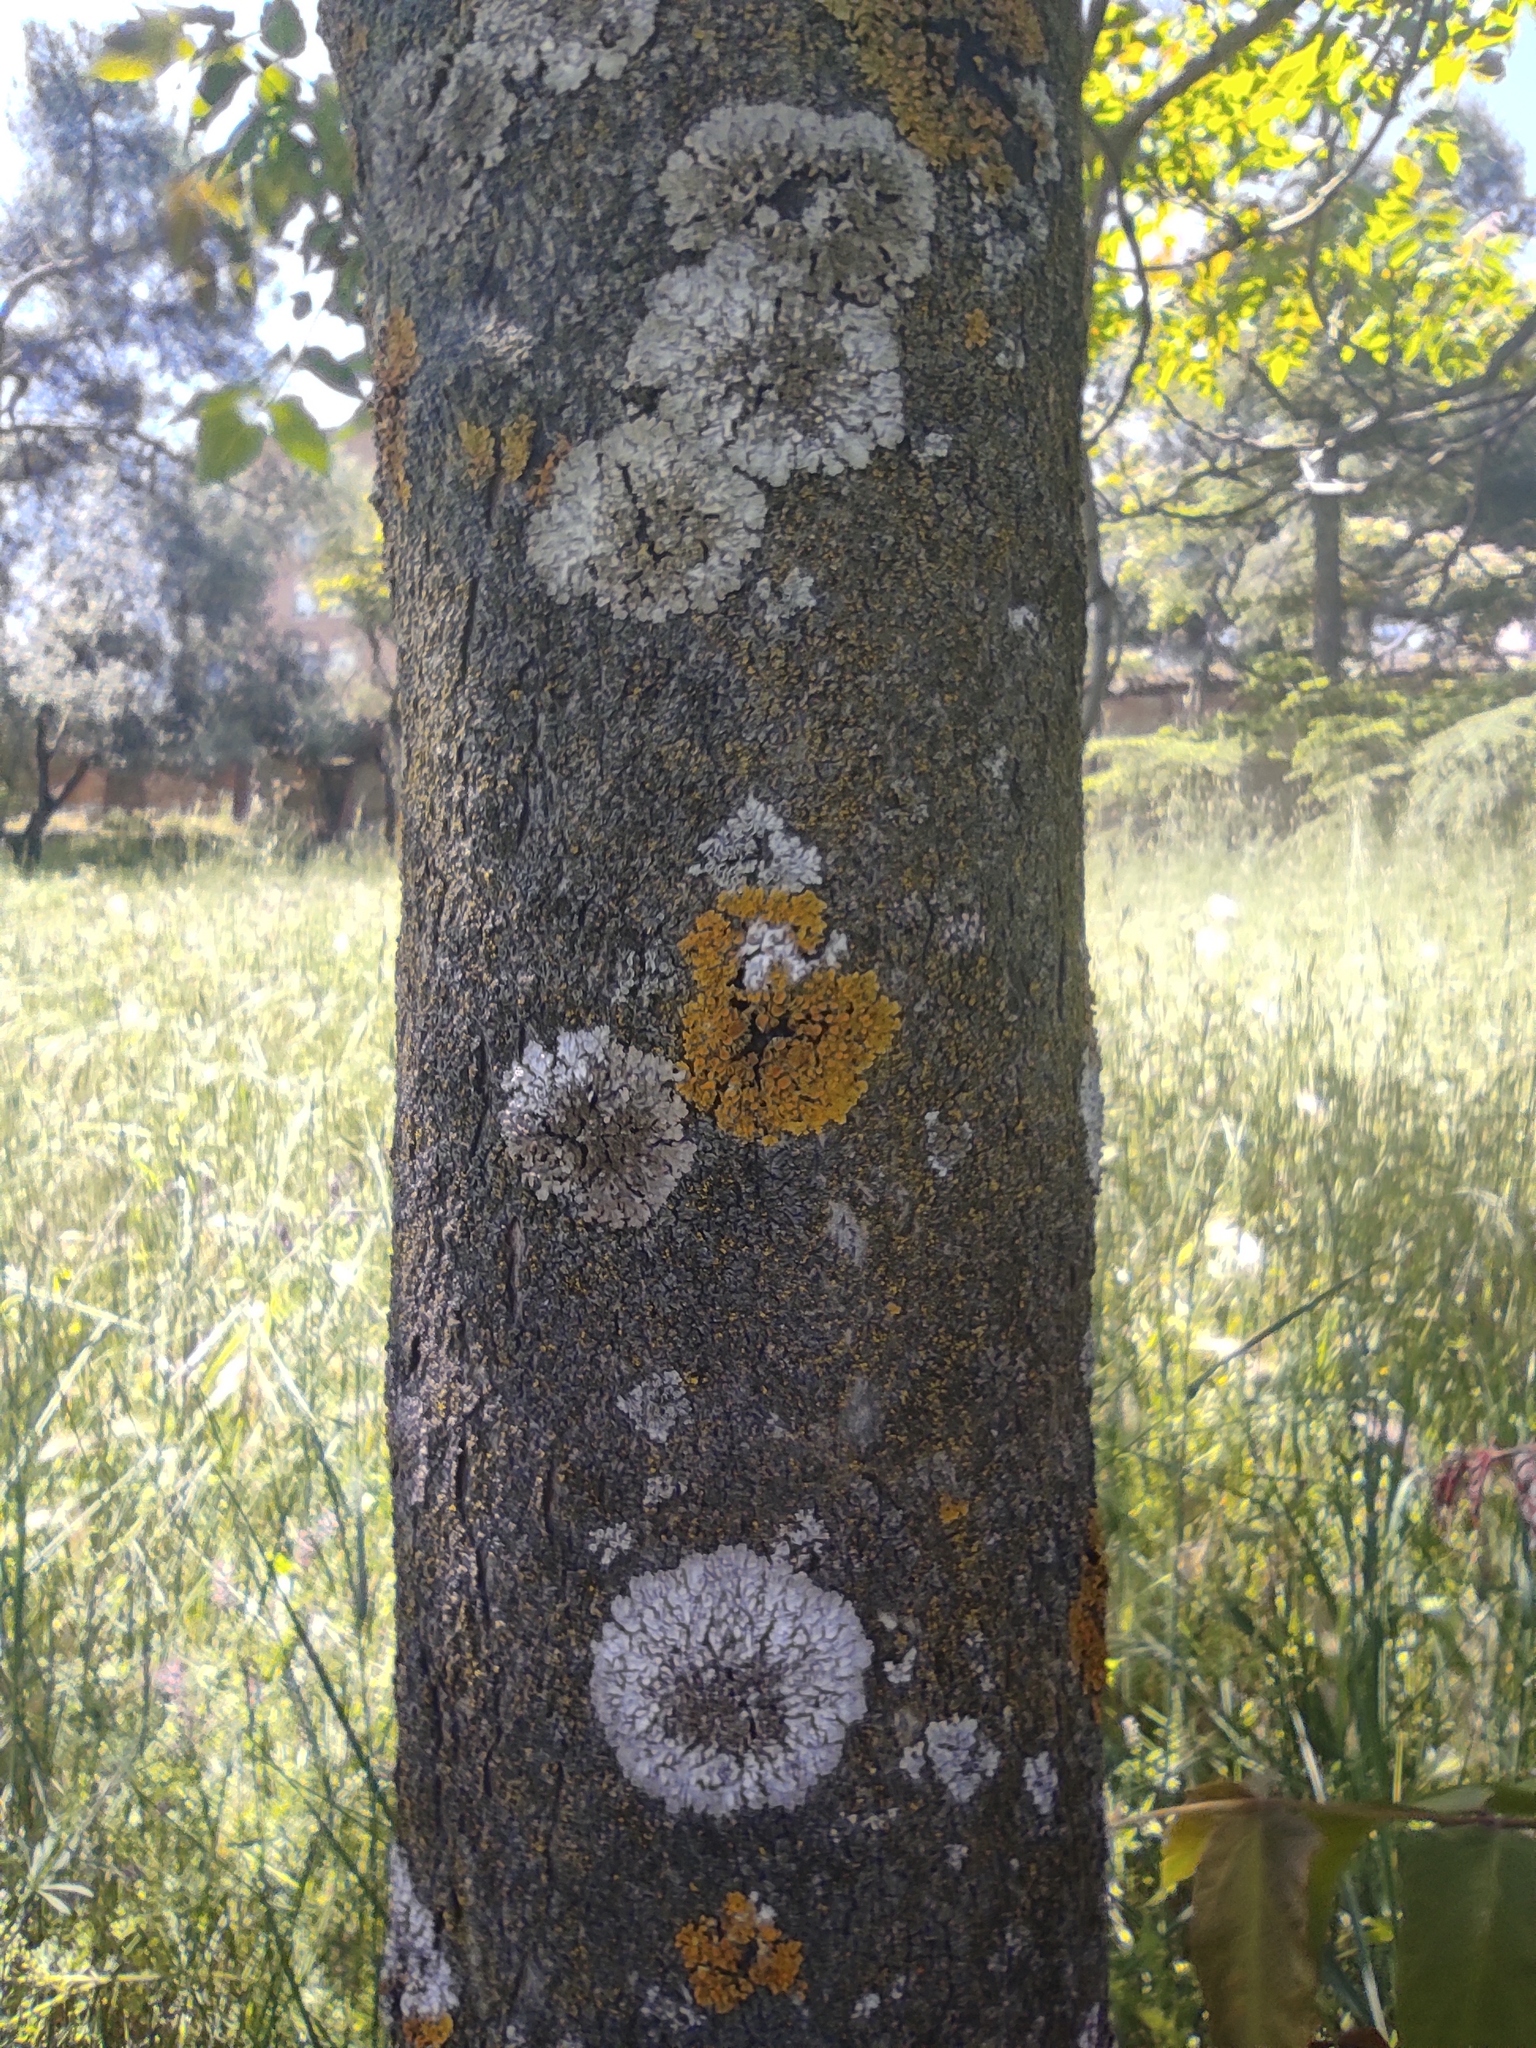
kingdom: Fungi
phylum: Ascomycota
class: Lecanoromycetes
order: Teloschistales
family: Teloschistaceae
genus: Xanthoria
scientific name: Xanthoria parietina
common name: Common orange lichen
